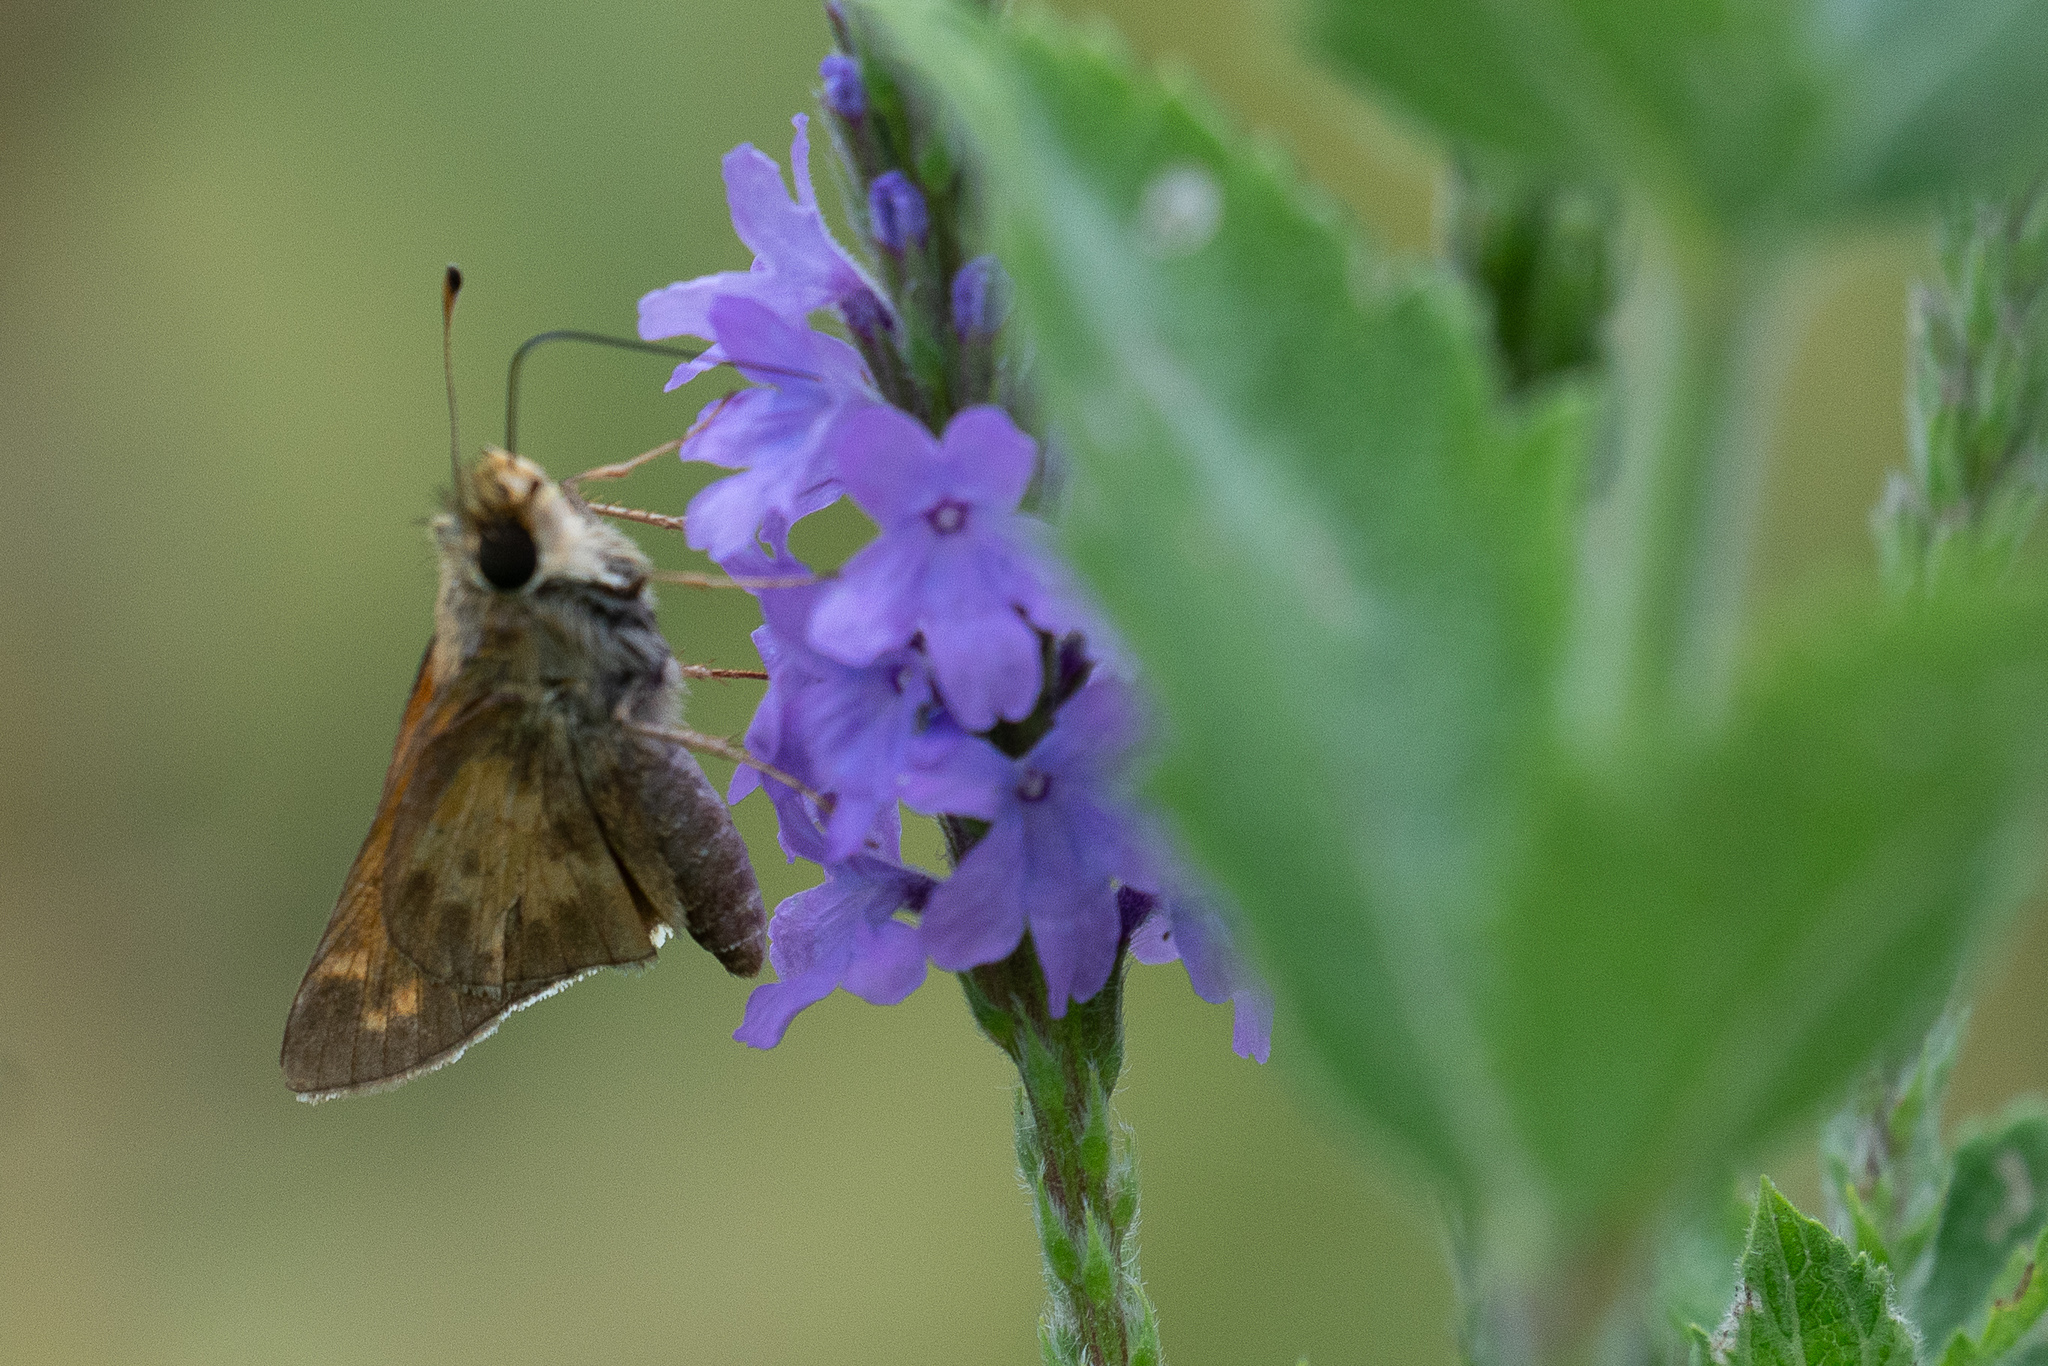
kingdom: Animalia
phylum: Arthropoda
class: Insecta
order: Lepidoptera
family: Hesperiidae
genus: Atalopedes
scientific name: Atalopedes
